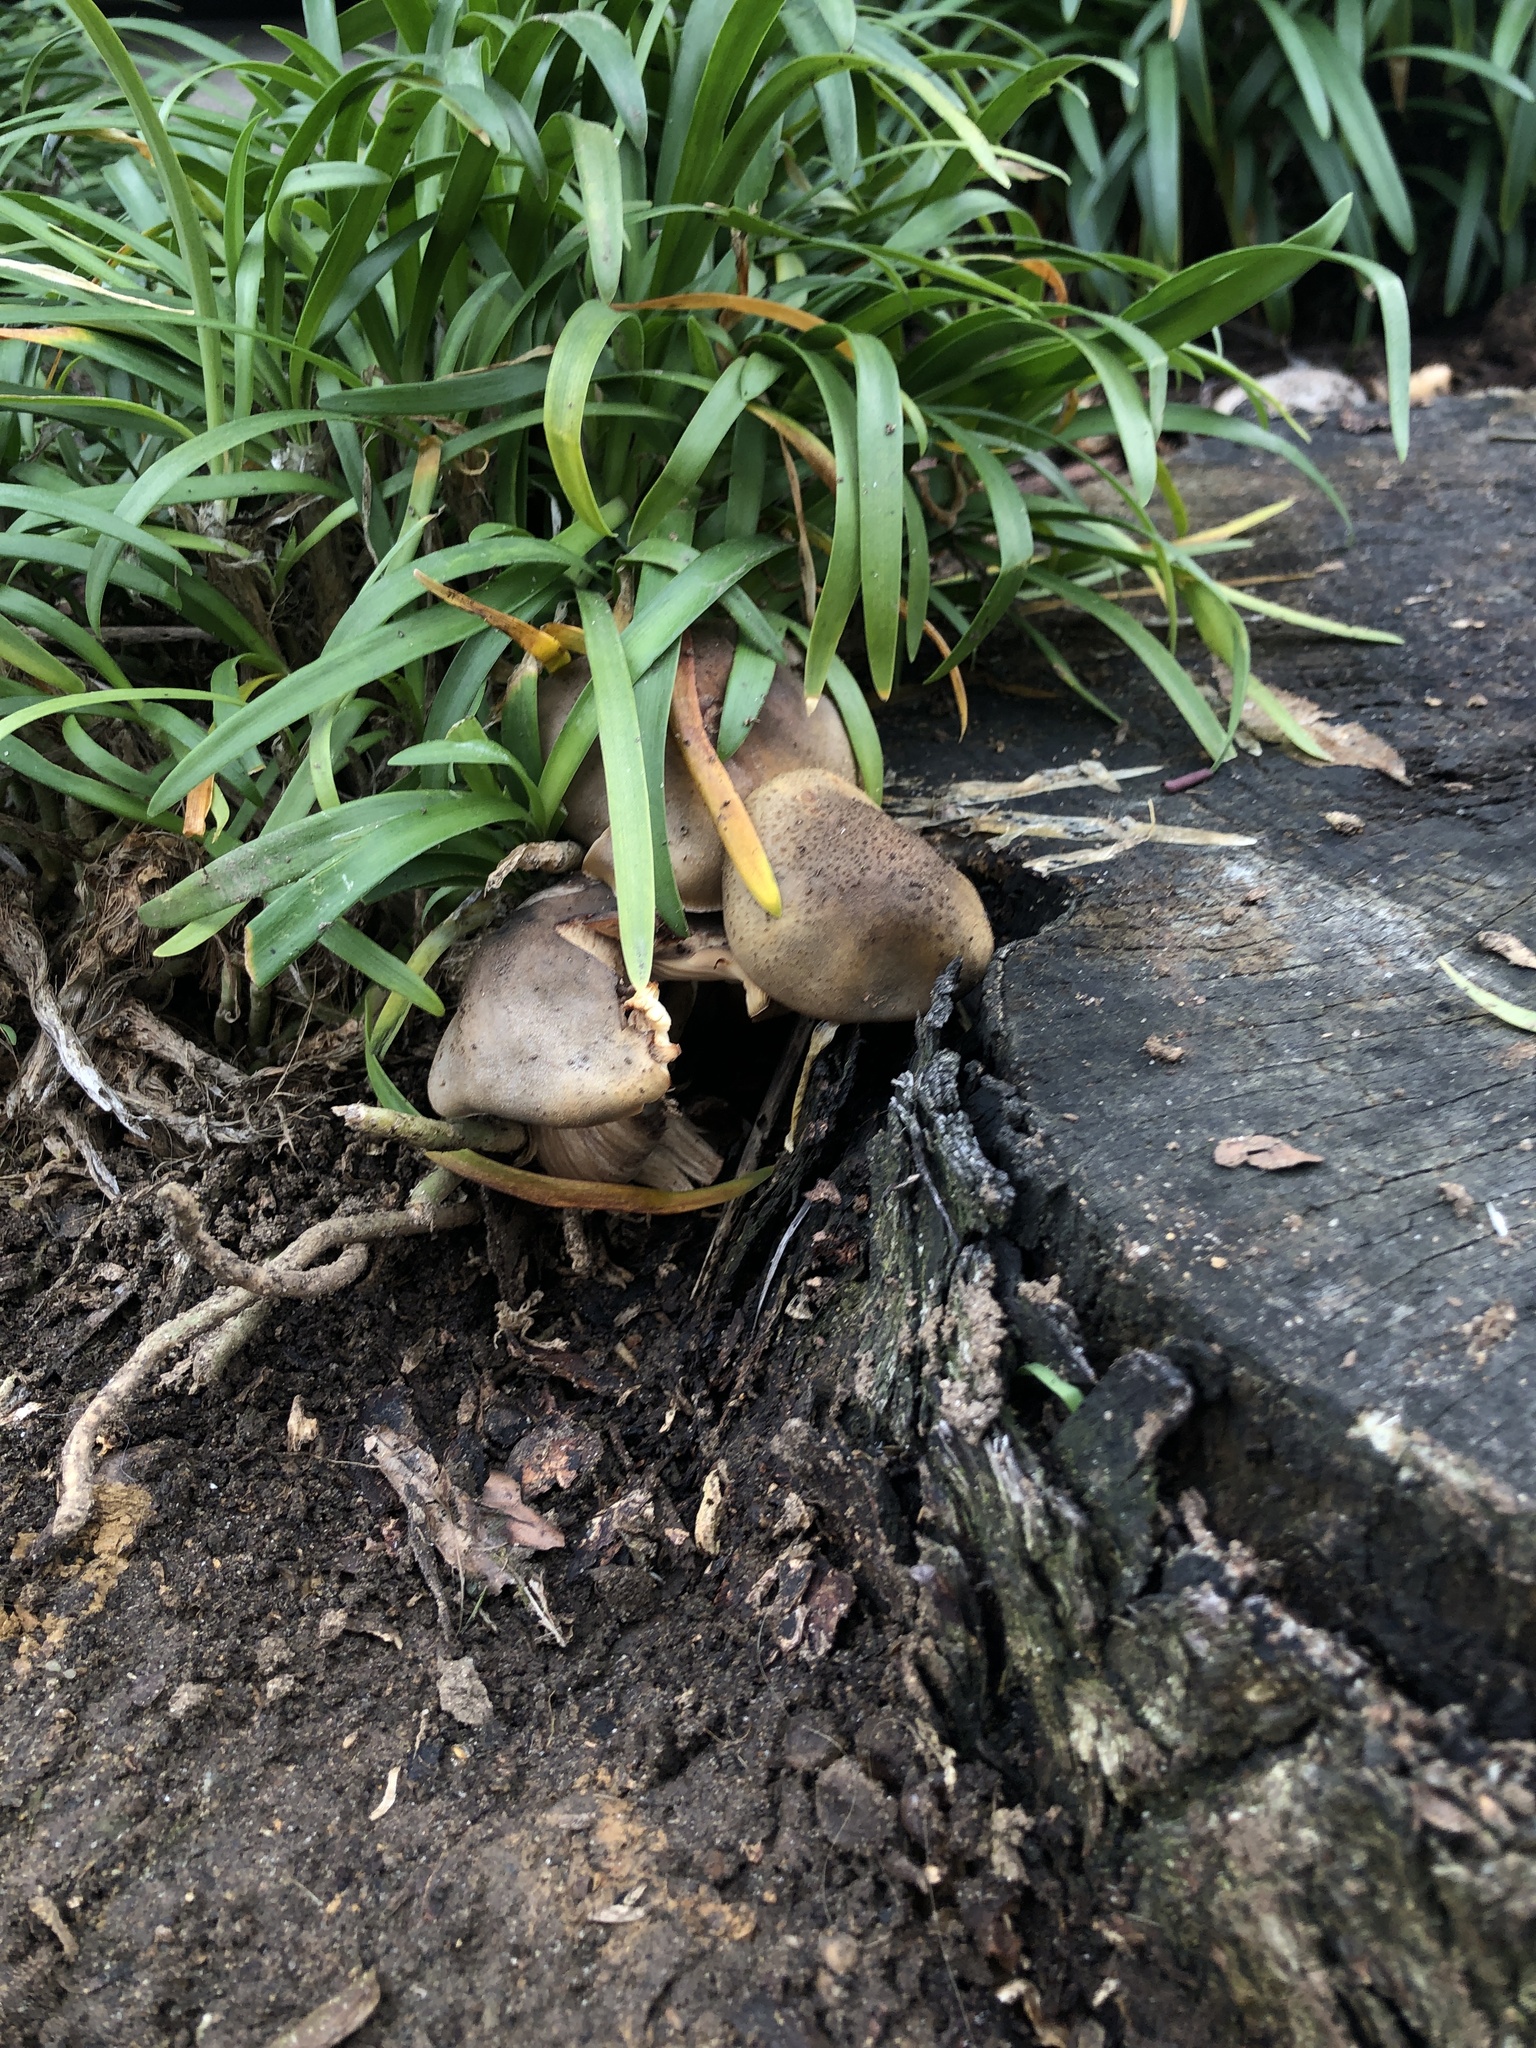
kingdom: Fungi
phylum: Basidiomycota
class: Agaricomycetes
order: Agaricales
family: Physalacriaceae
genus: Armillaria
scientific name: Armillaria mellea
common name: Honey fungus
